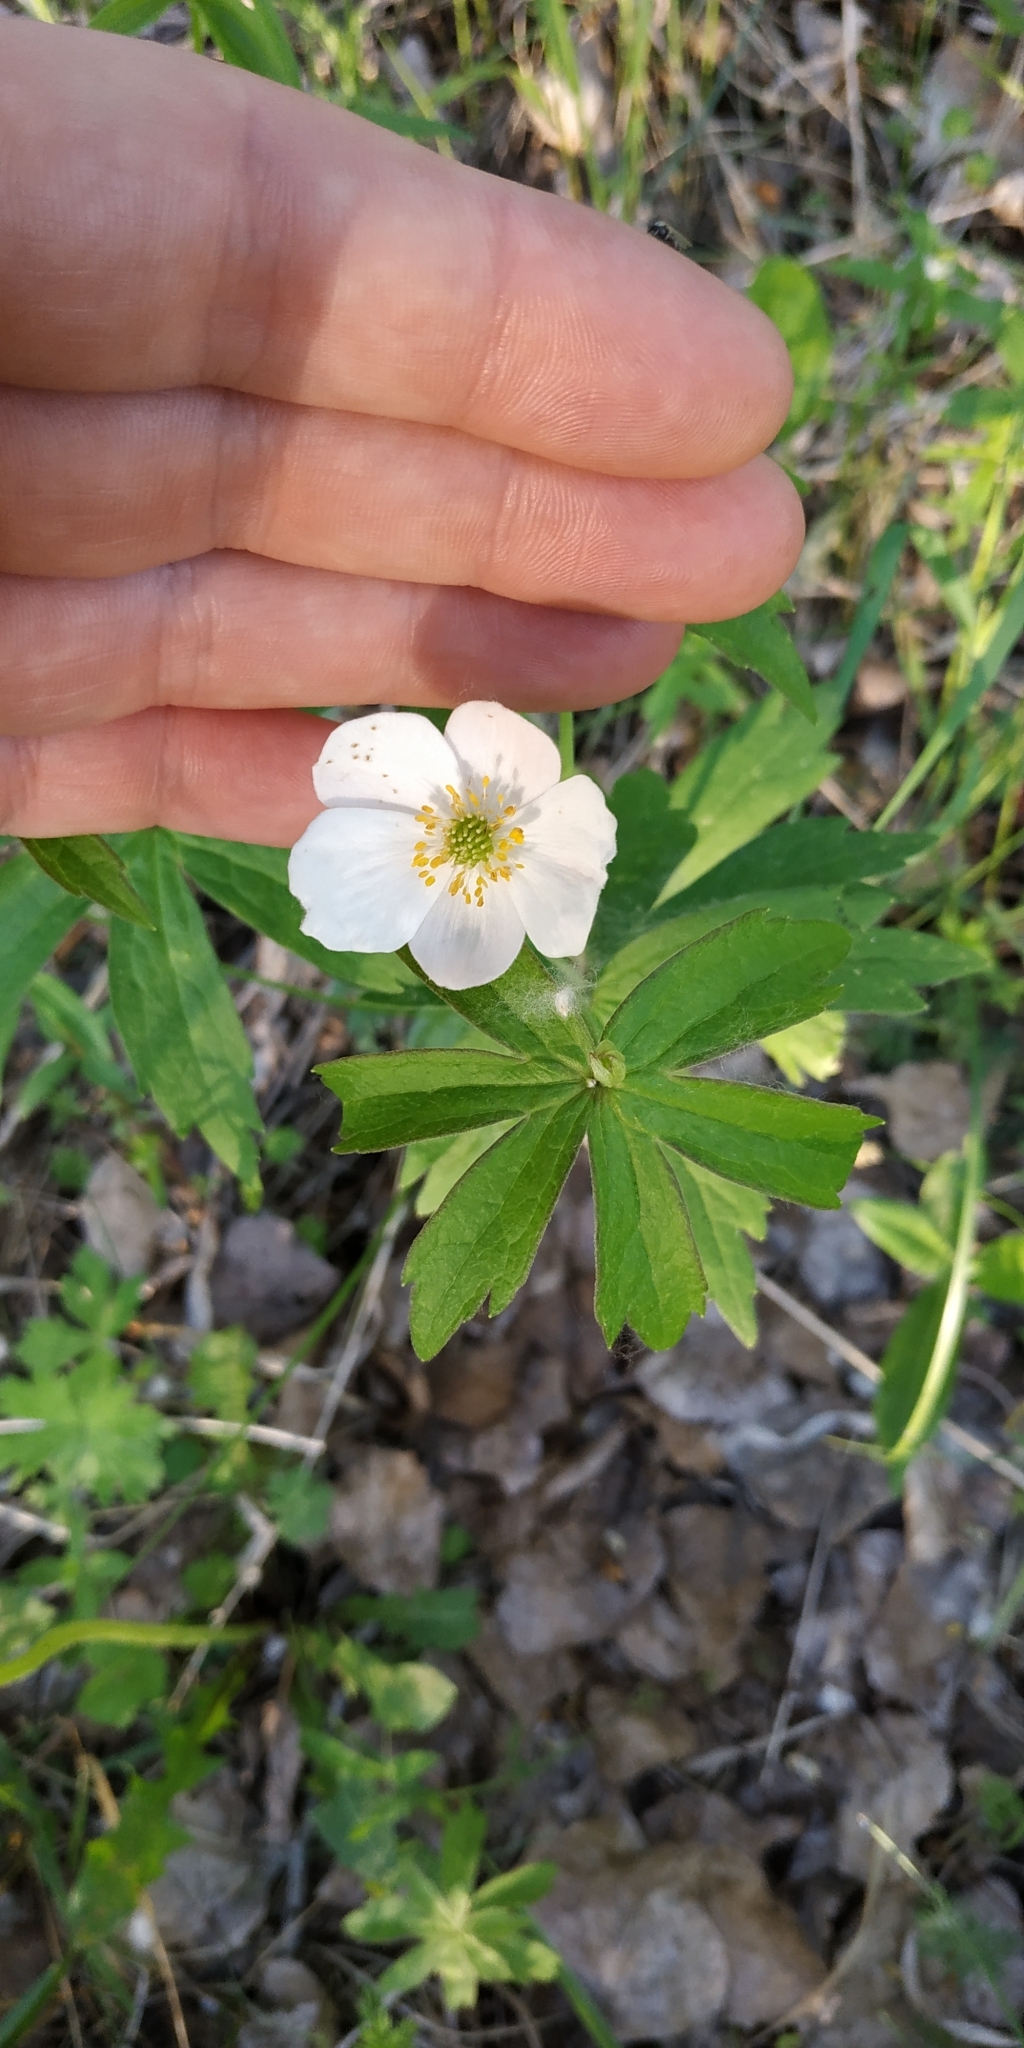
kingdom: Plantae
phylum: Tracheophyta
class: Magnoliopsida
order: Ranunculales
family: Ranunculaceae
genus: Anemone
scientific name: Anemone sylvestris
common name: Snowdrop anemone
